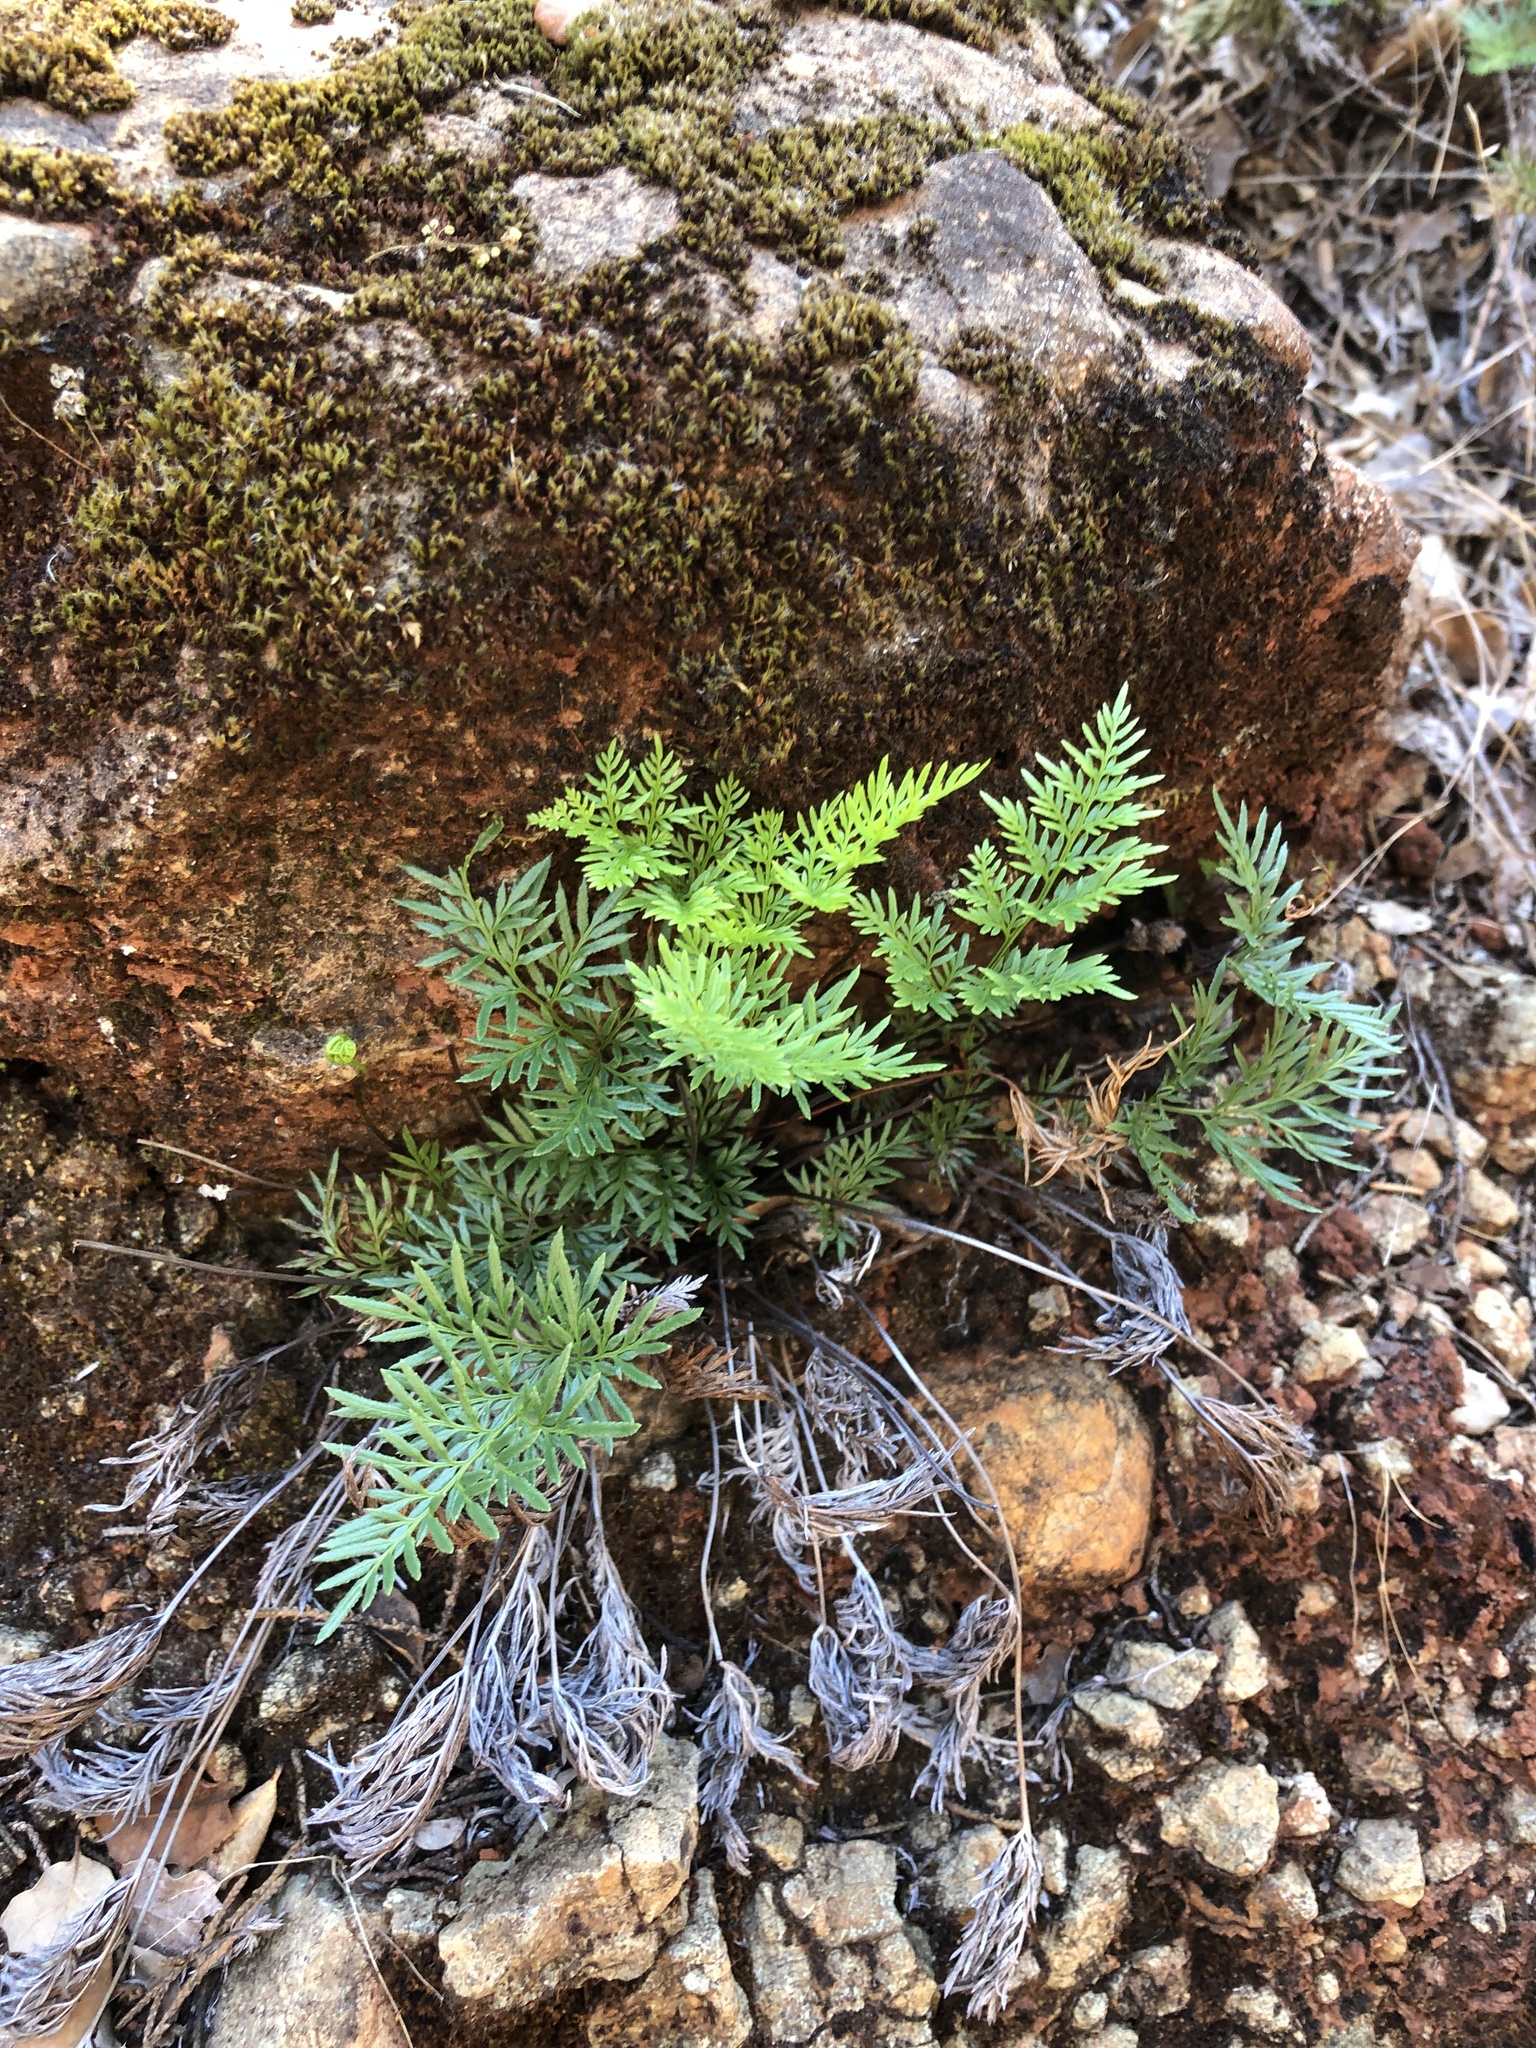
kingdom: Plantae
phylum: Tracheophyta
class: Polypodiopsida
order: Polypodiales
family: Pteridaceae
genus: Aspidotis
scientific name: Aspidotis densa
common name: Indian's dream
